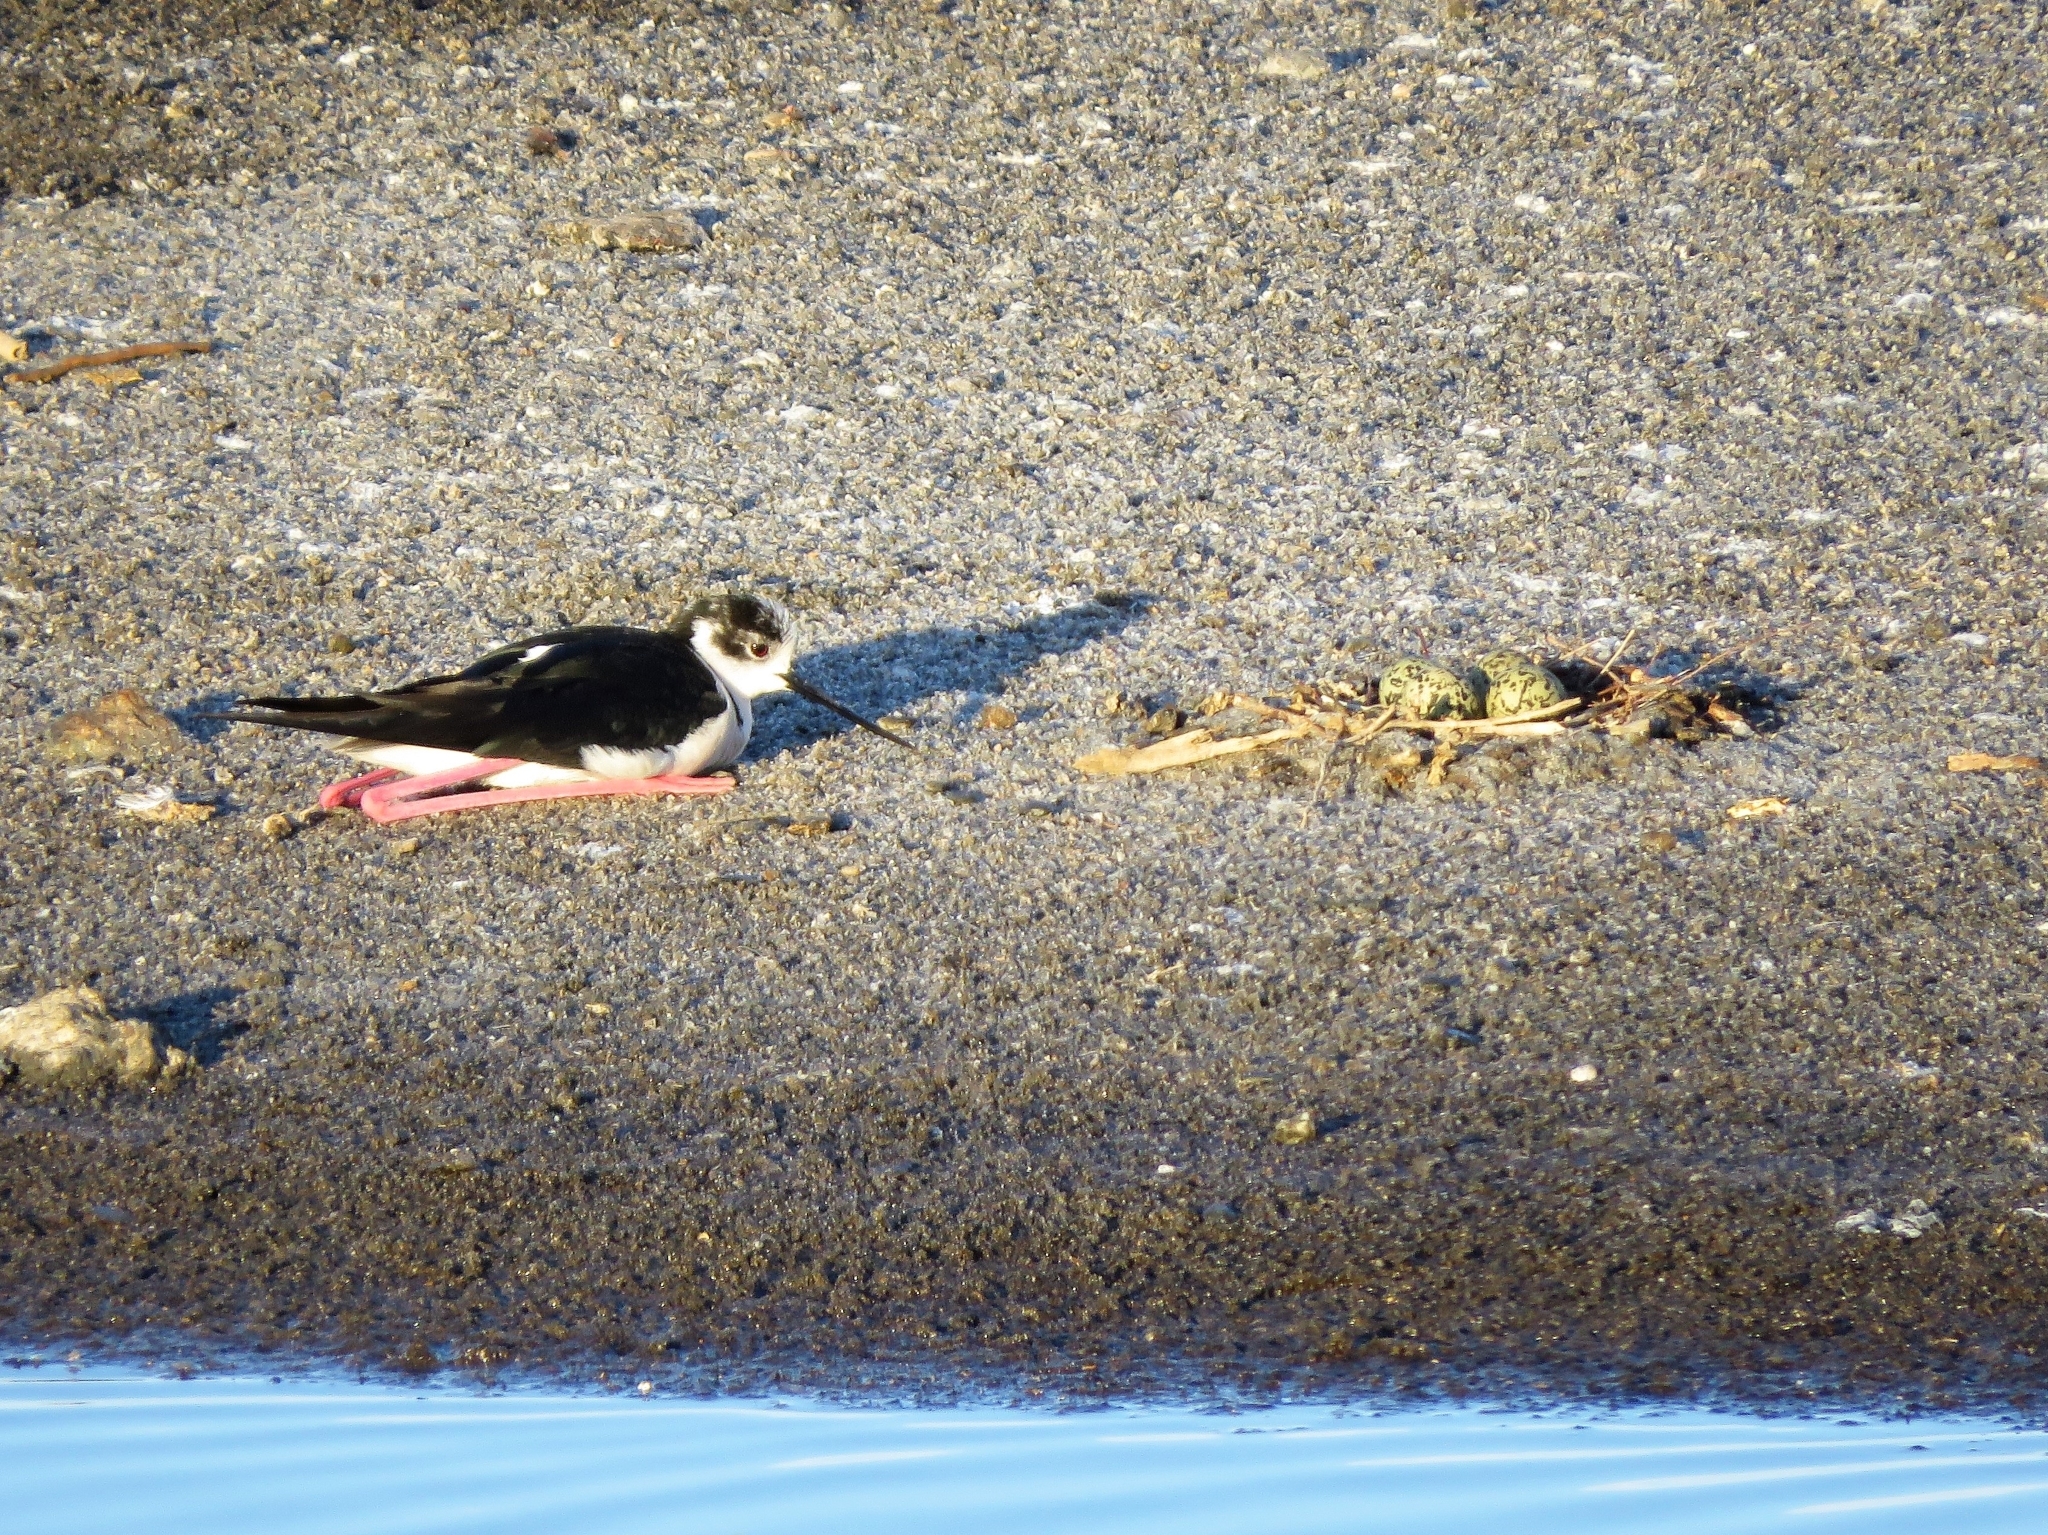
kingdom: Animalia
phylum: Chordata
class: Aves
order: Charadriiformes
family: Recurvirostridae
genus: Himantopus
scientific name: Himantopus himantopus
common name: Black-winged stilt
